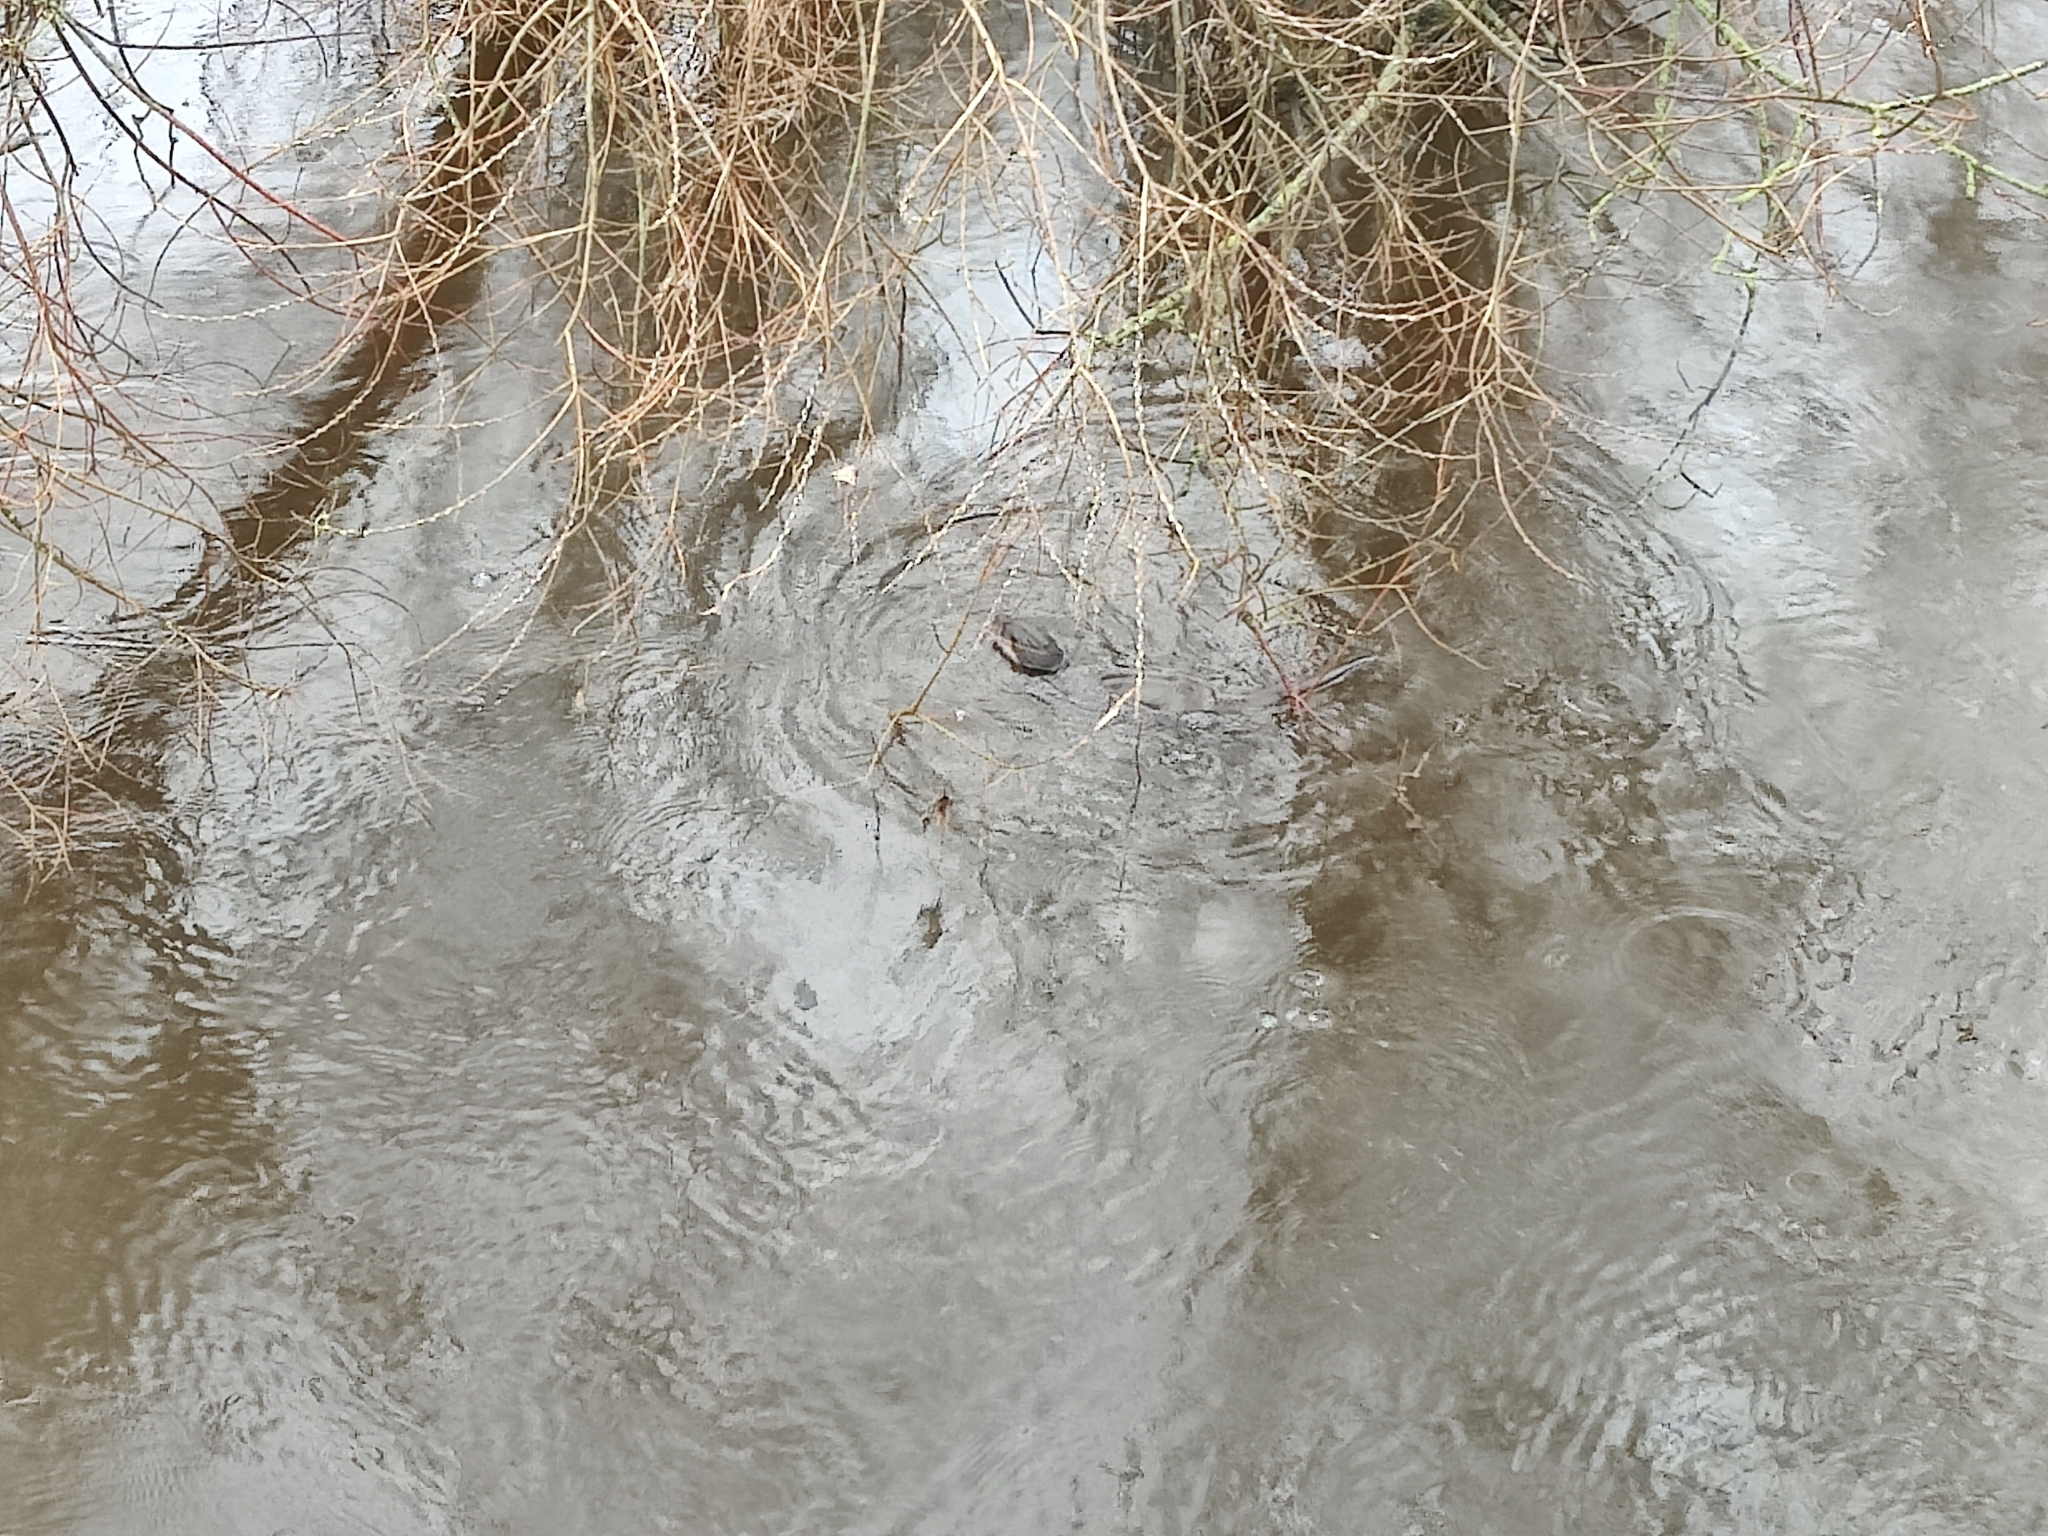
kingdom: Animalia
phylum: Chordata
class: Mammalia
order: Carnivora
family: Mustelidae
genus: Lutra
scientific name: Lutra lutra
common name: European otter
